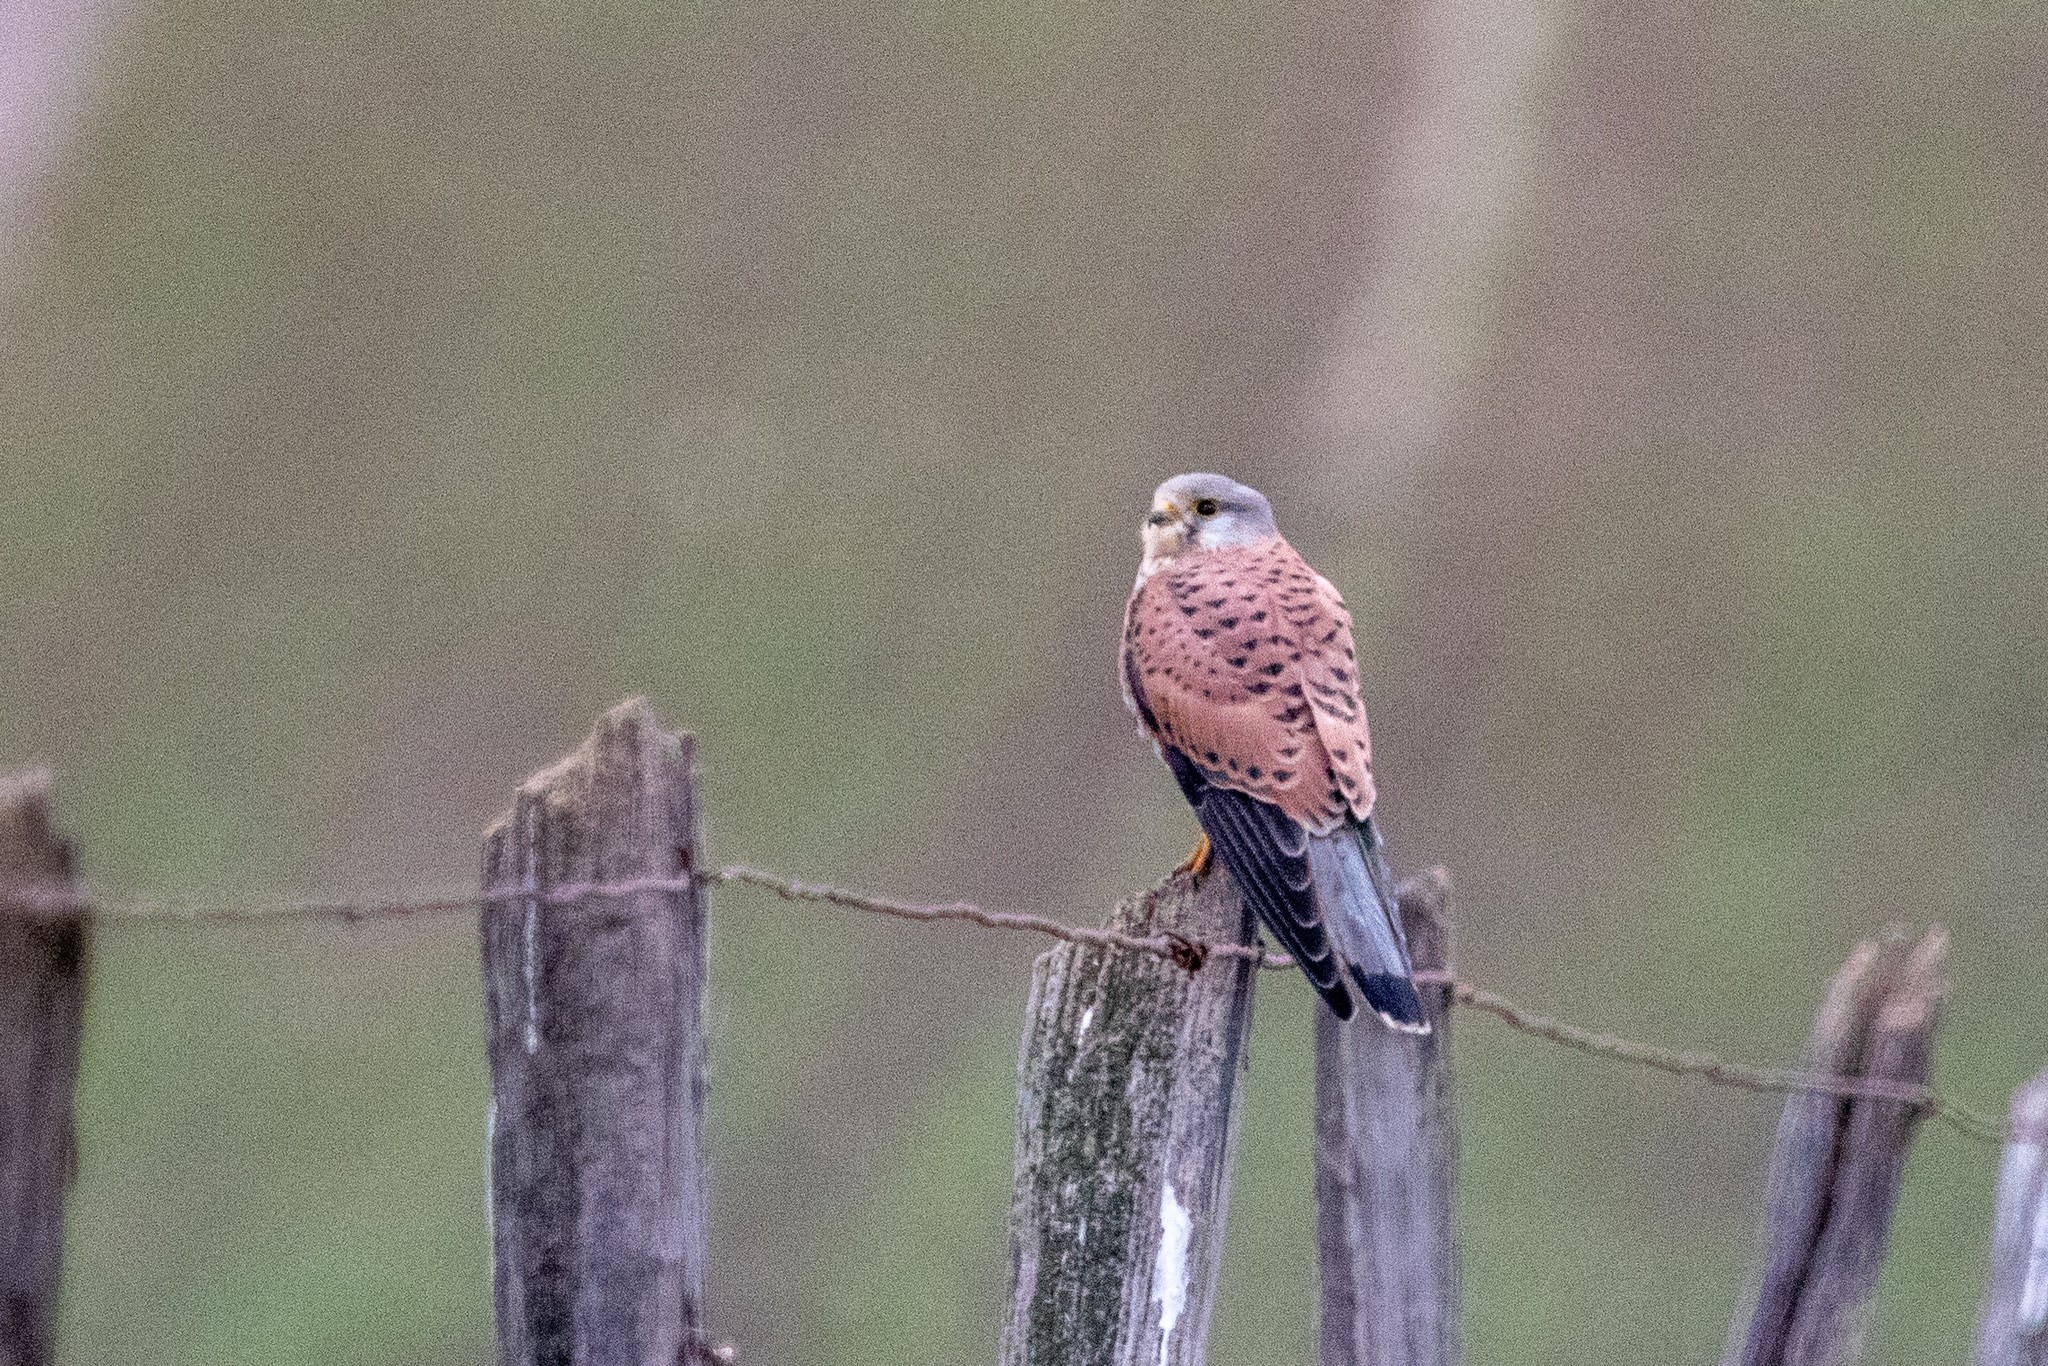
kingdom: Animalia
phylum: Chordata
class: Aves
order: Falconiformes
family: Falconidae
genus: Falco
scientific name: Falco tinnunculus
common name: Common kestrel
